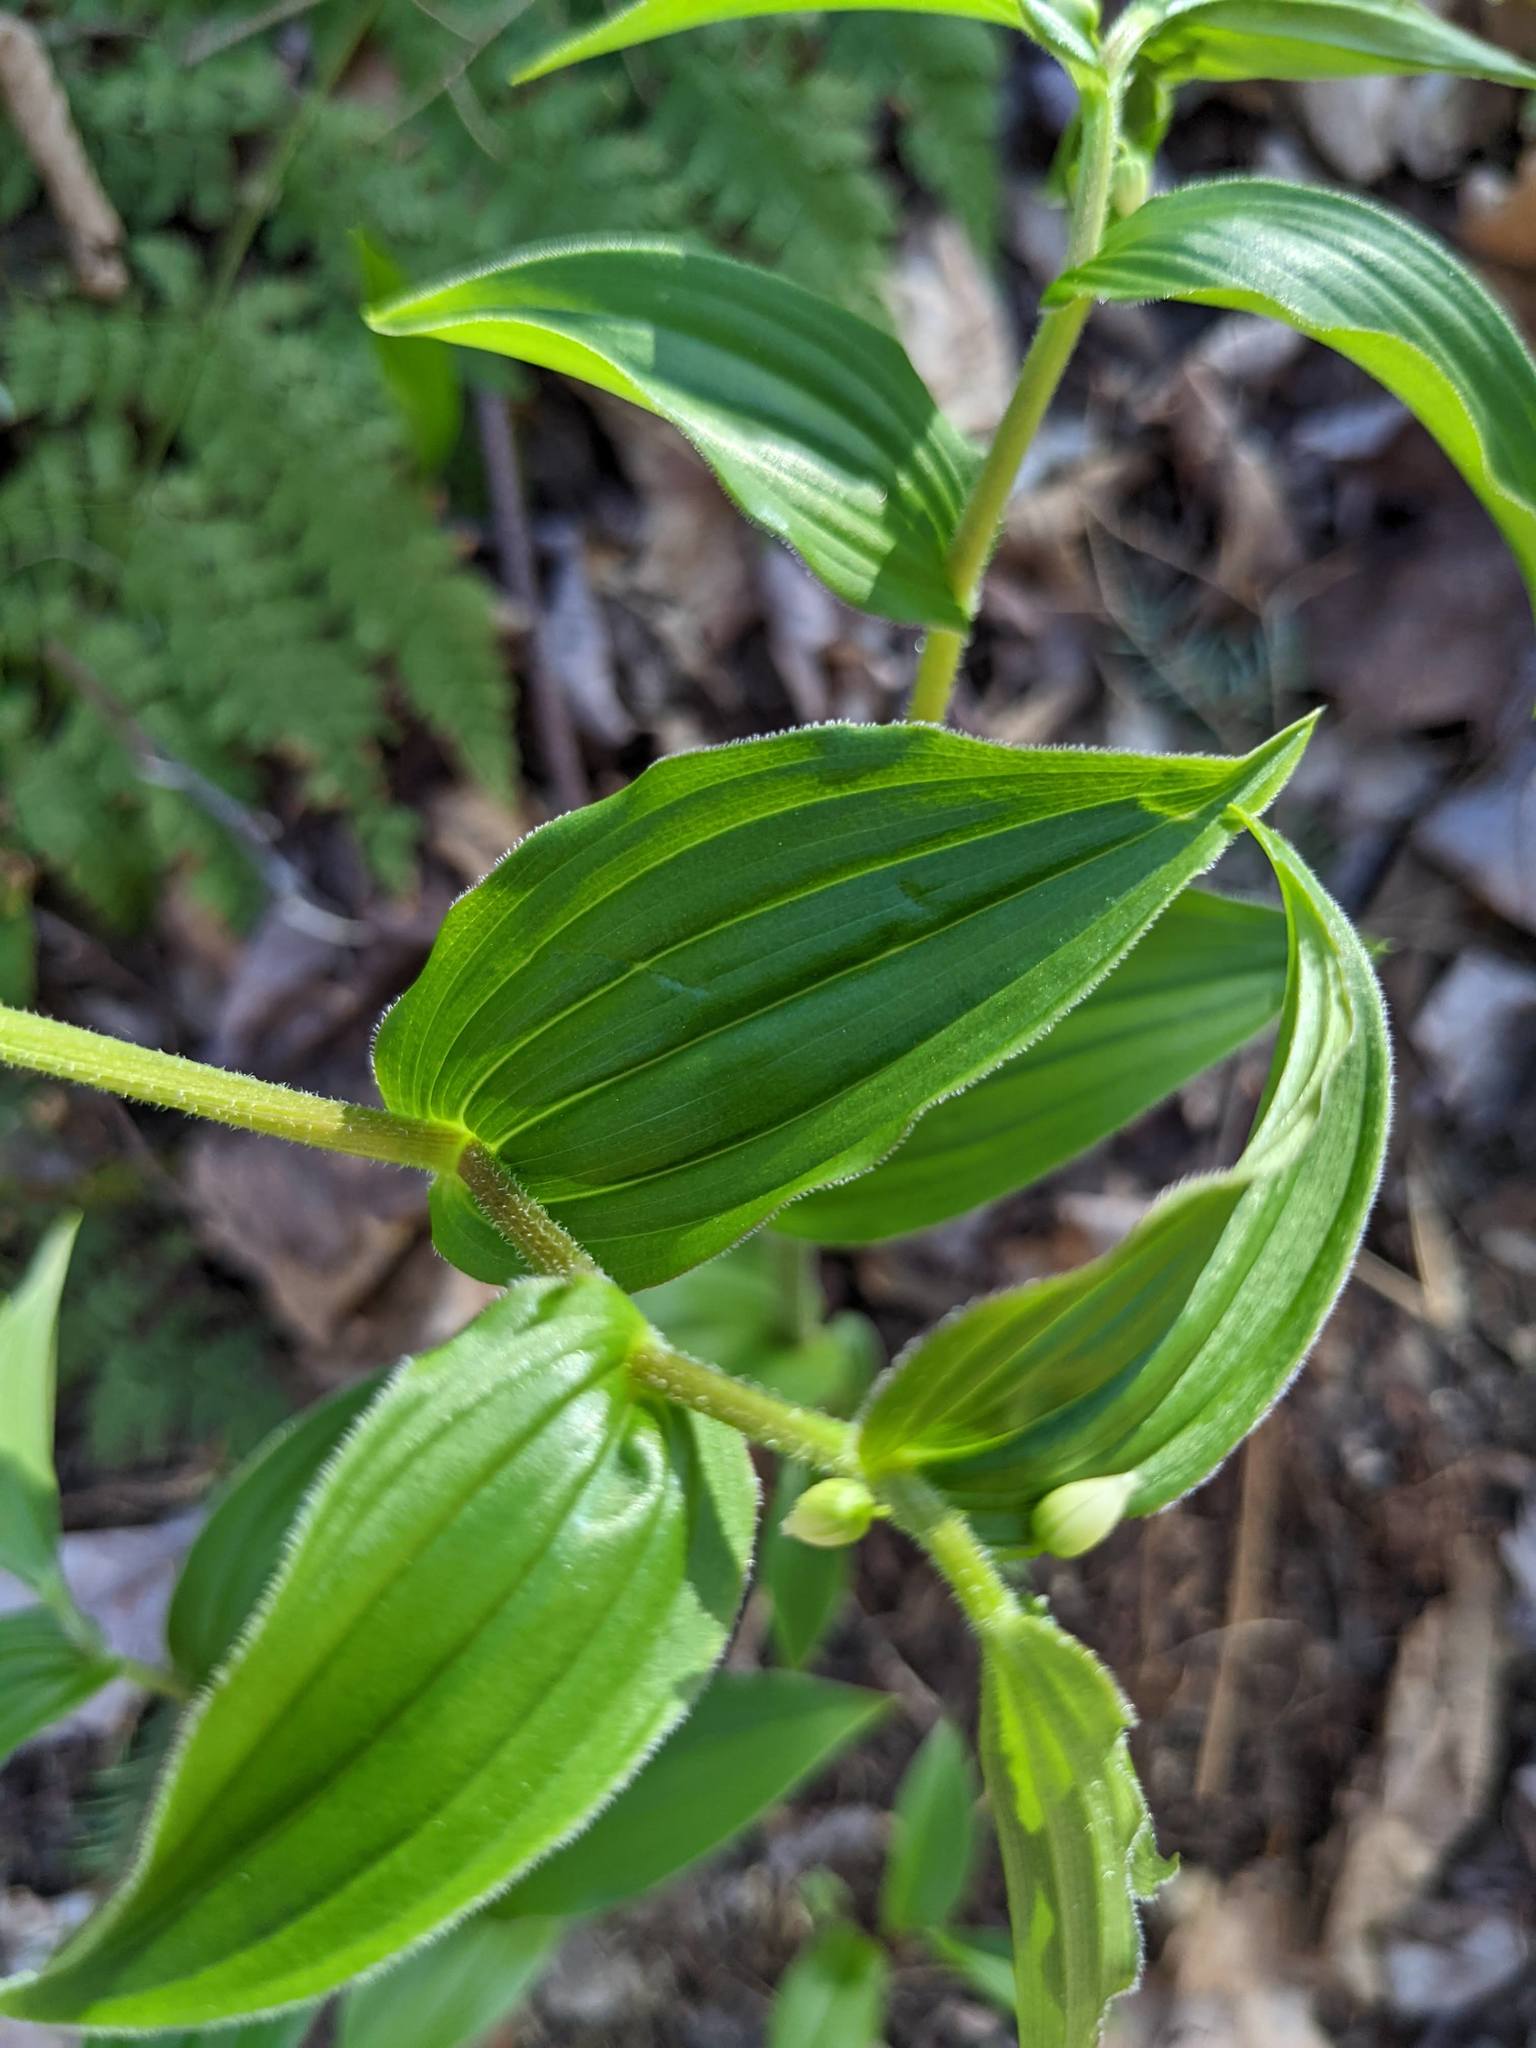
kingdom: Plantae
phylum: Tracheophyta
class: Liliopsida
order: Liliales
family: Liliaceae
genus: Streptopus
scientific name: Streptopus lanceolatus
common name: Rose mandarin
